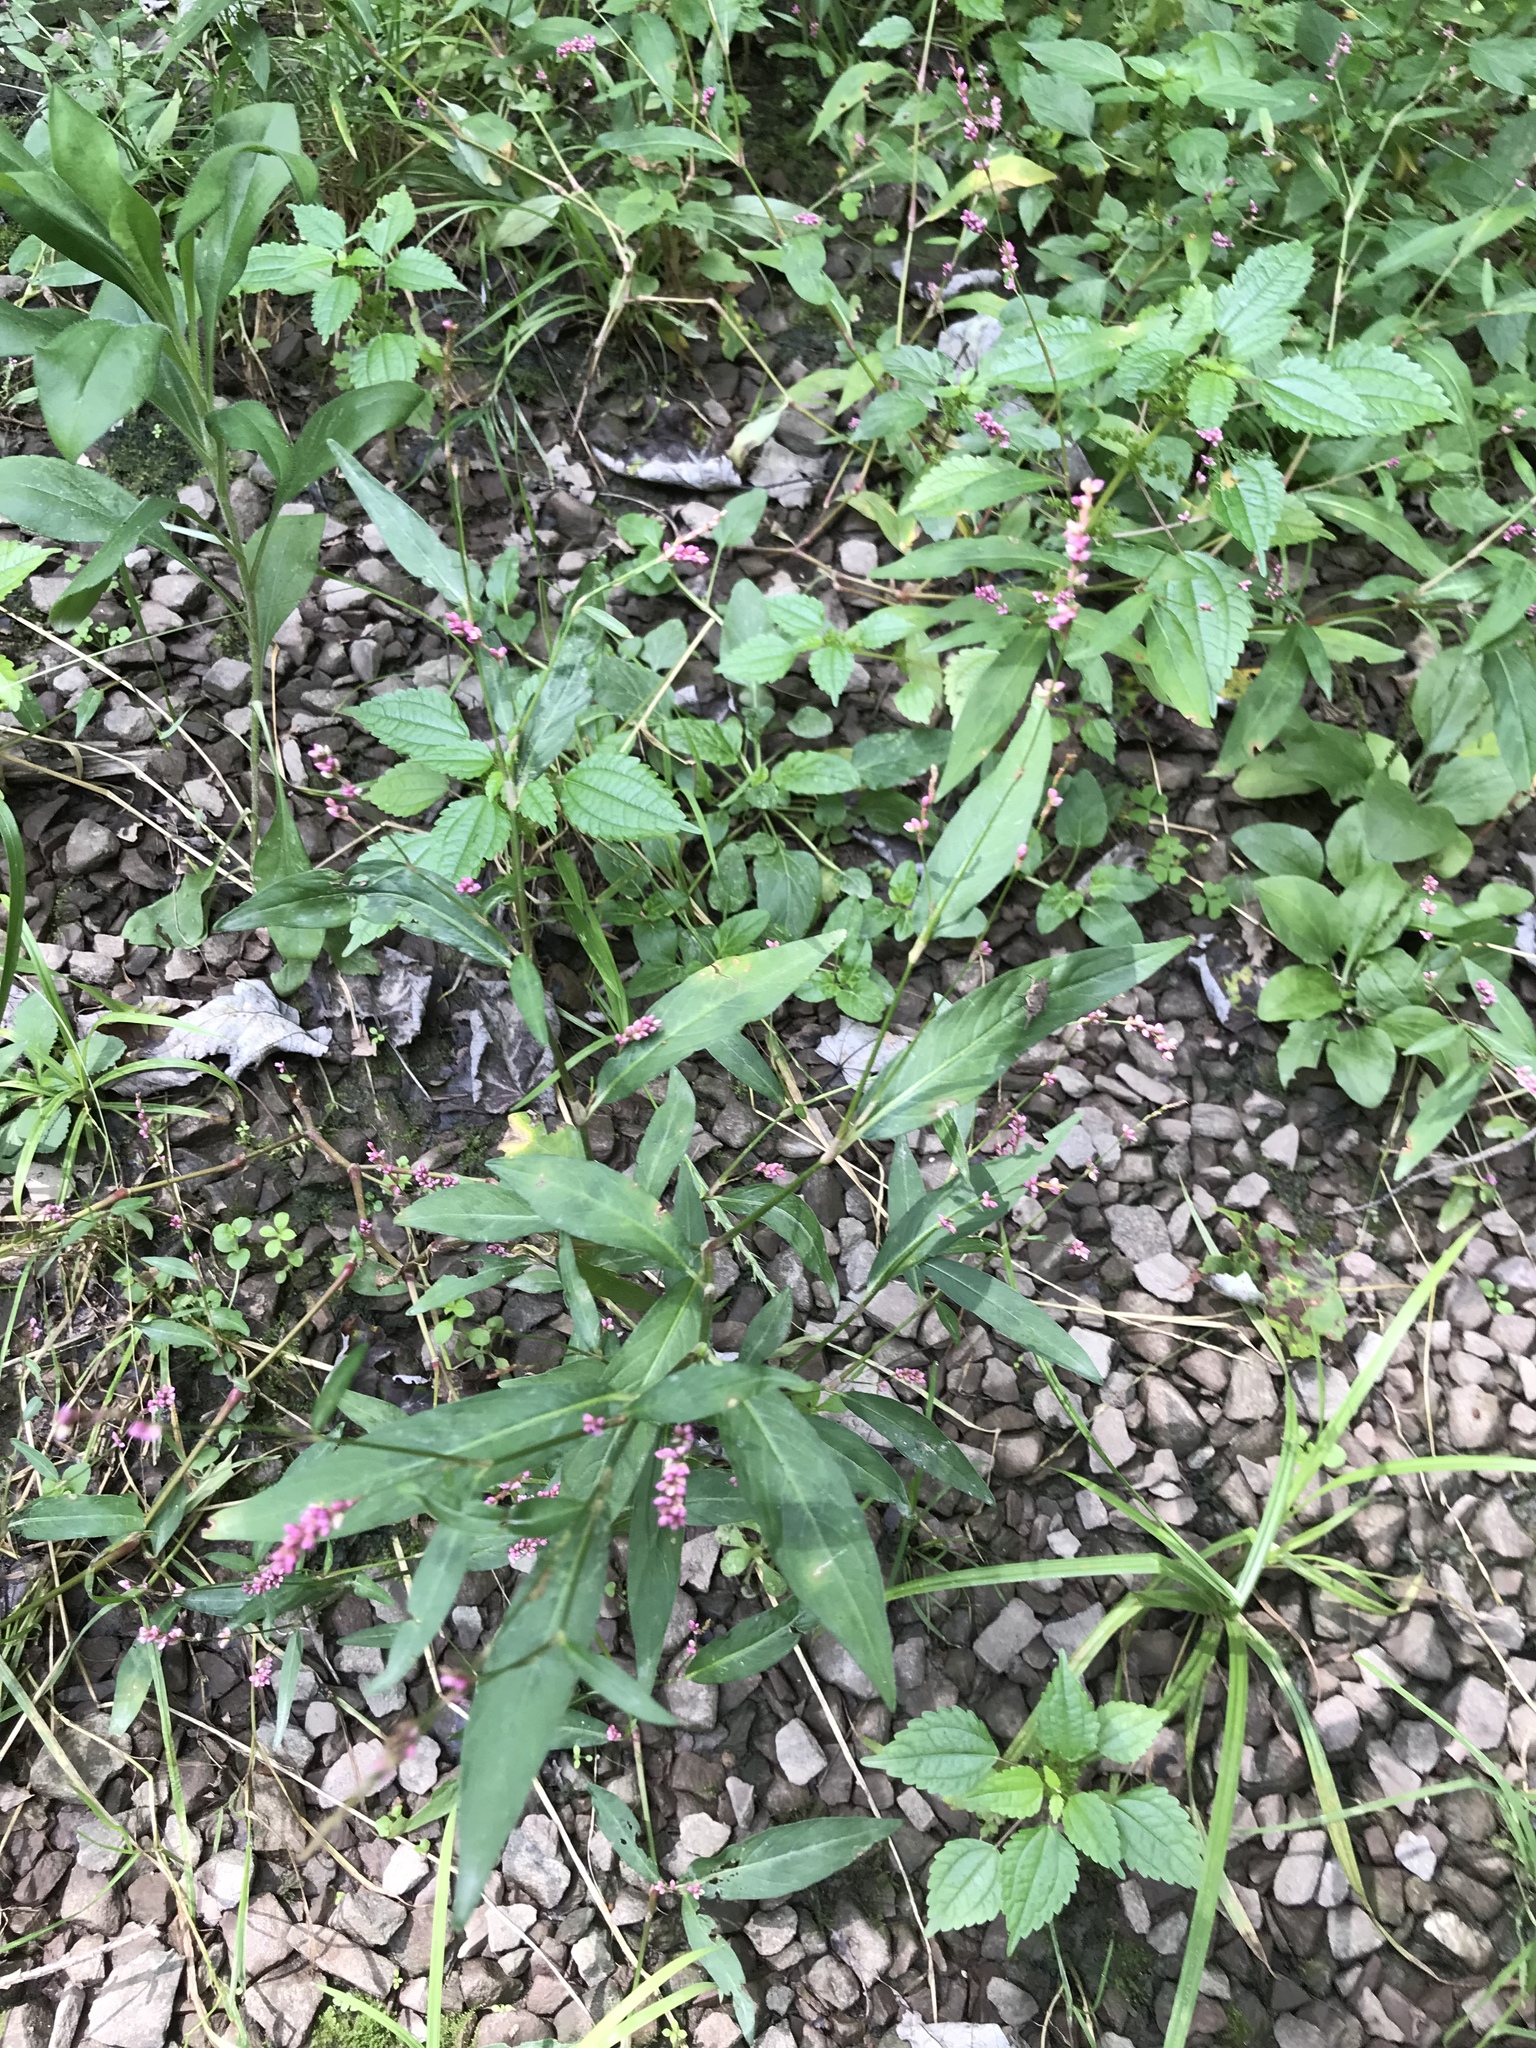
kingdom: Plantae
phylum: Tracheophyta
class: Magnoliopsida
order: Caryophyllales
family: Polygonaceae
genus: Persicaria
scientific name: Persicaria longiseta
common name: Bristly lady's-thumb
